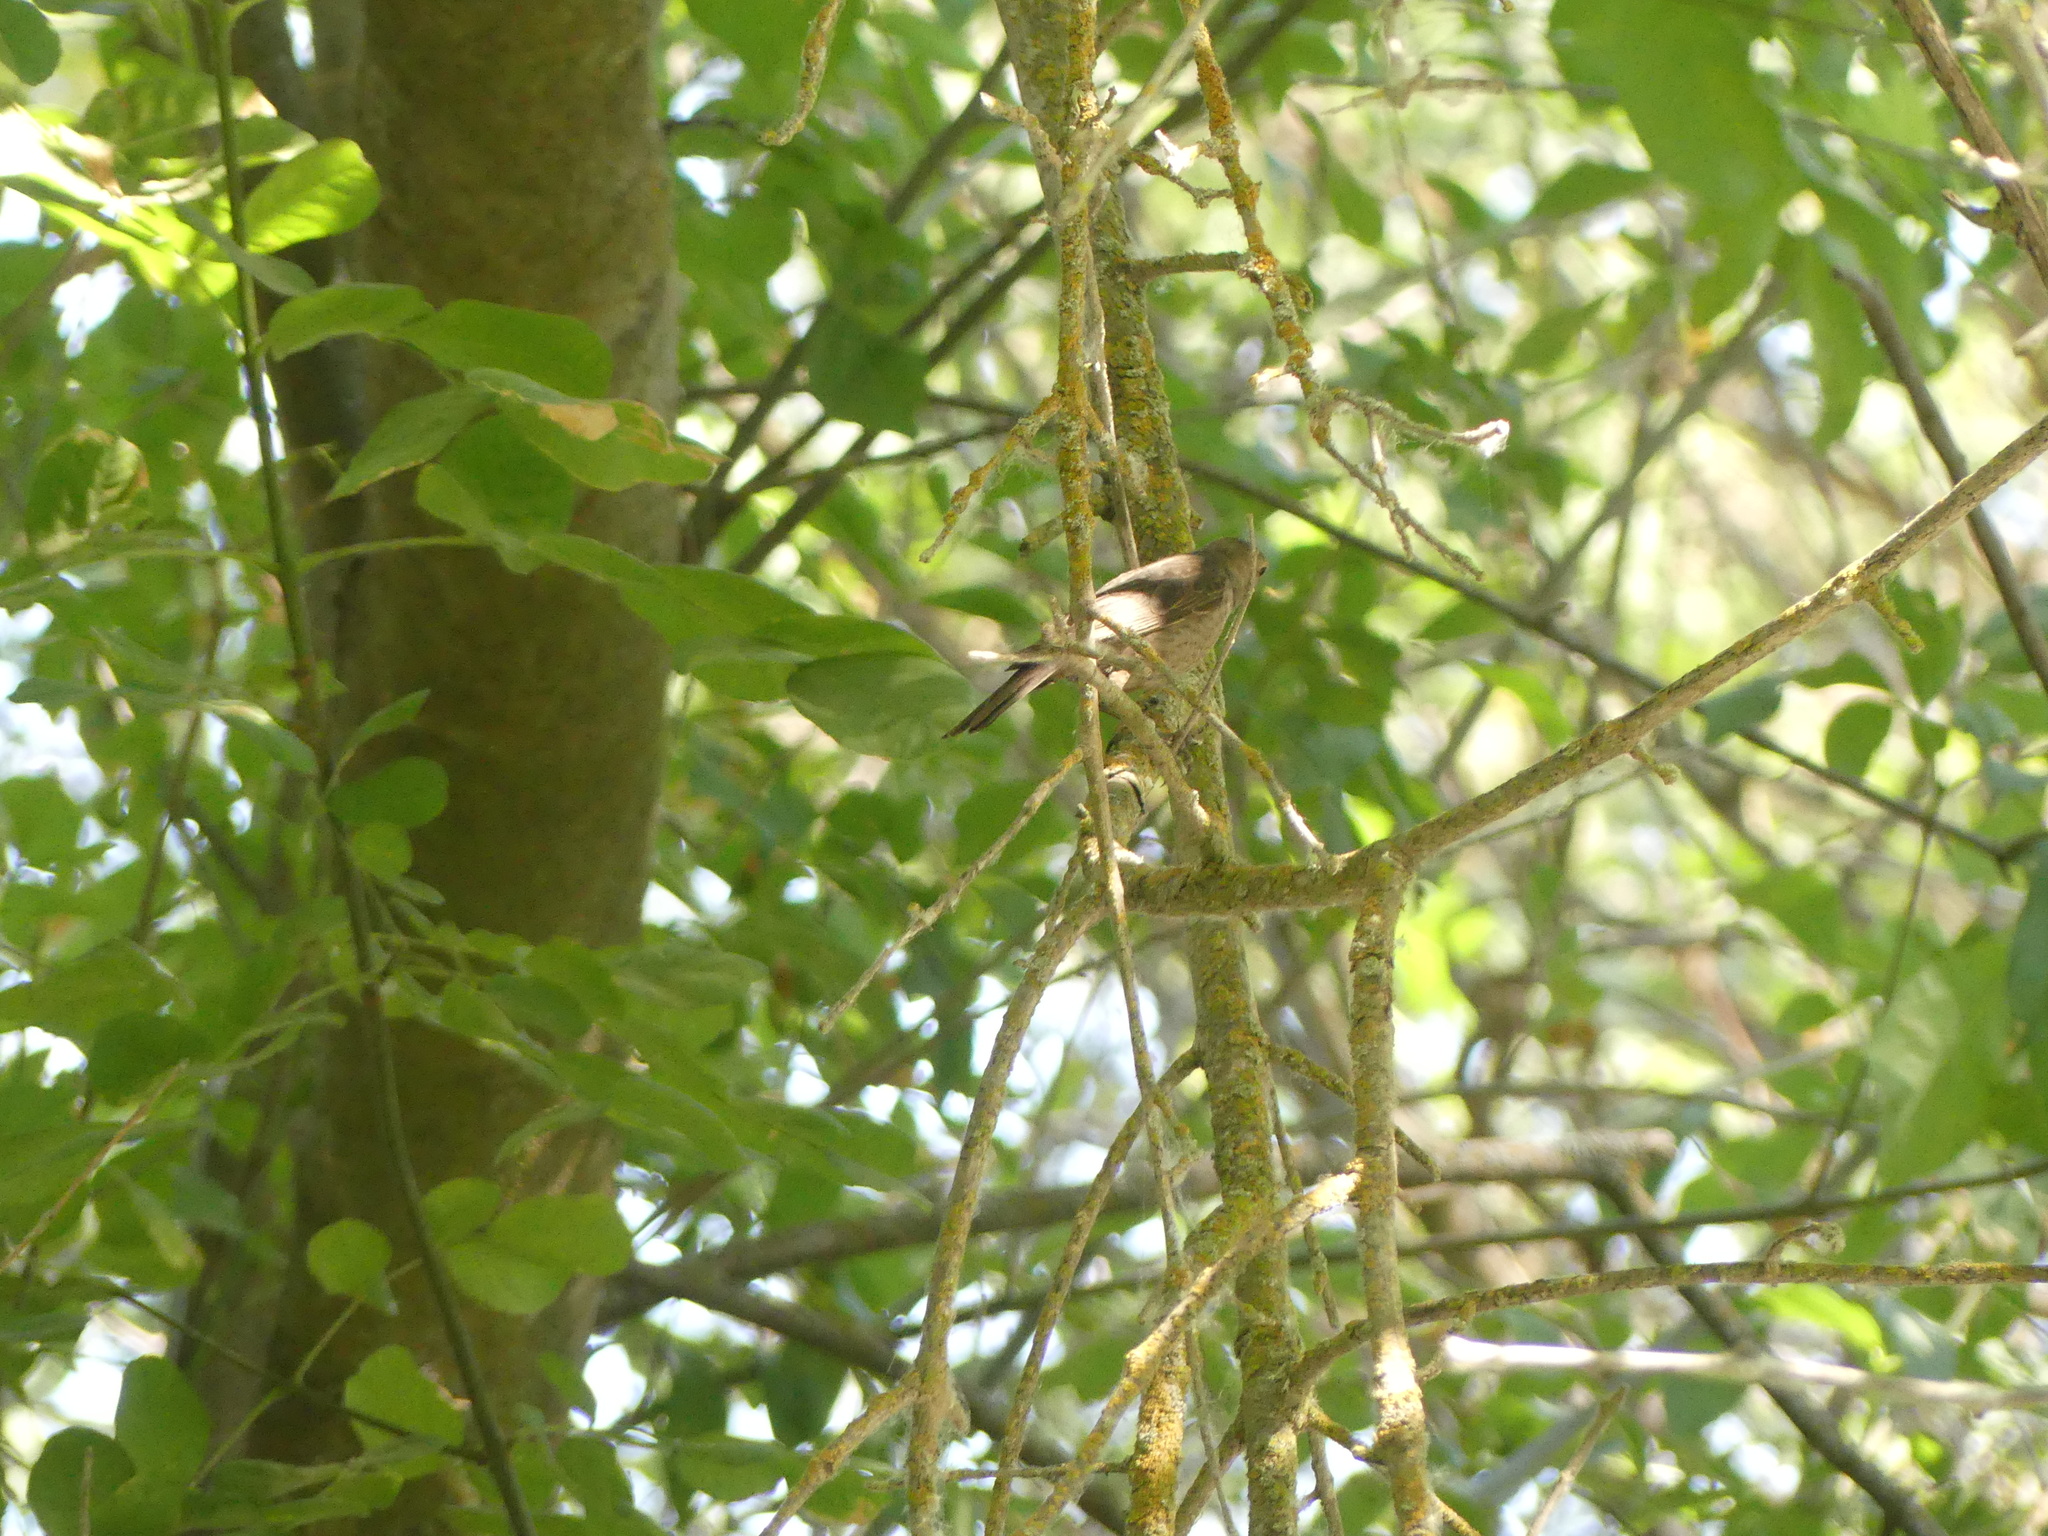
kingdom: Animalia
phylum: Chordata
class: Aves
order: Passeriformes
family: Icteridae
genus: Molothrus
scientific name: Molothrus ater
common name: Brown-headed cowbird
